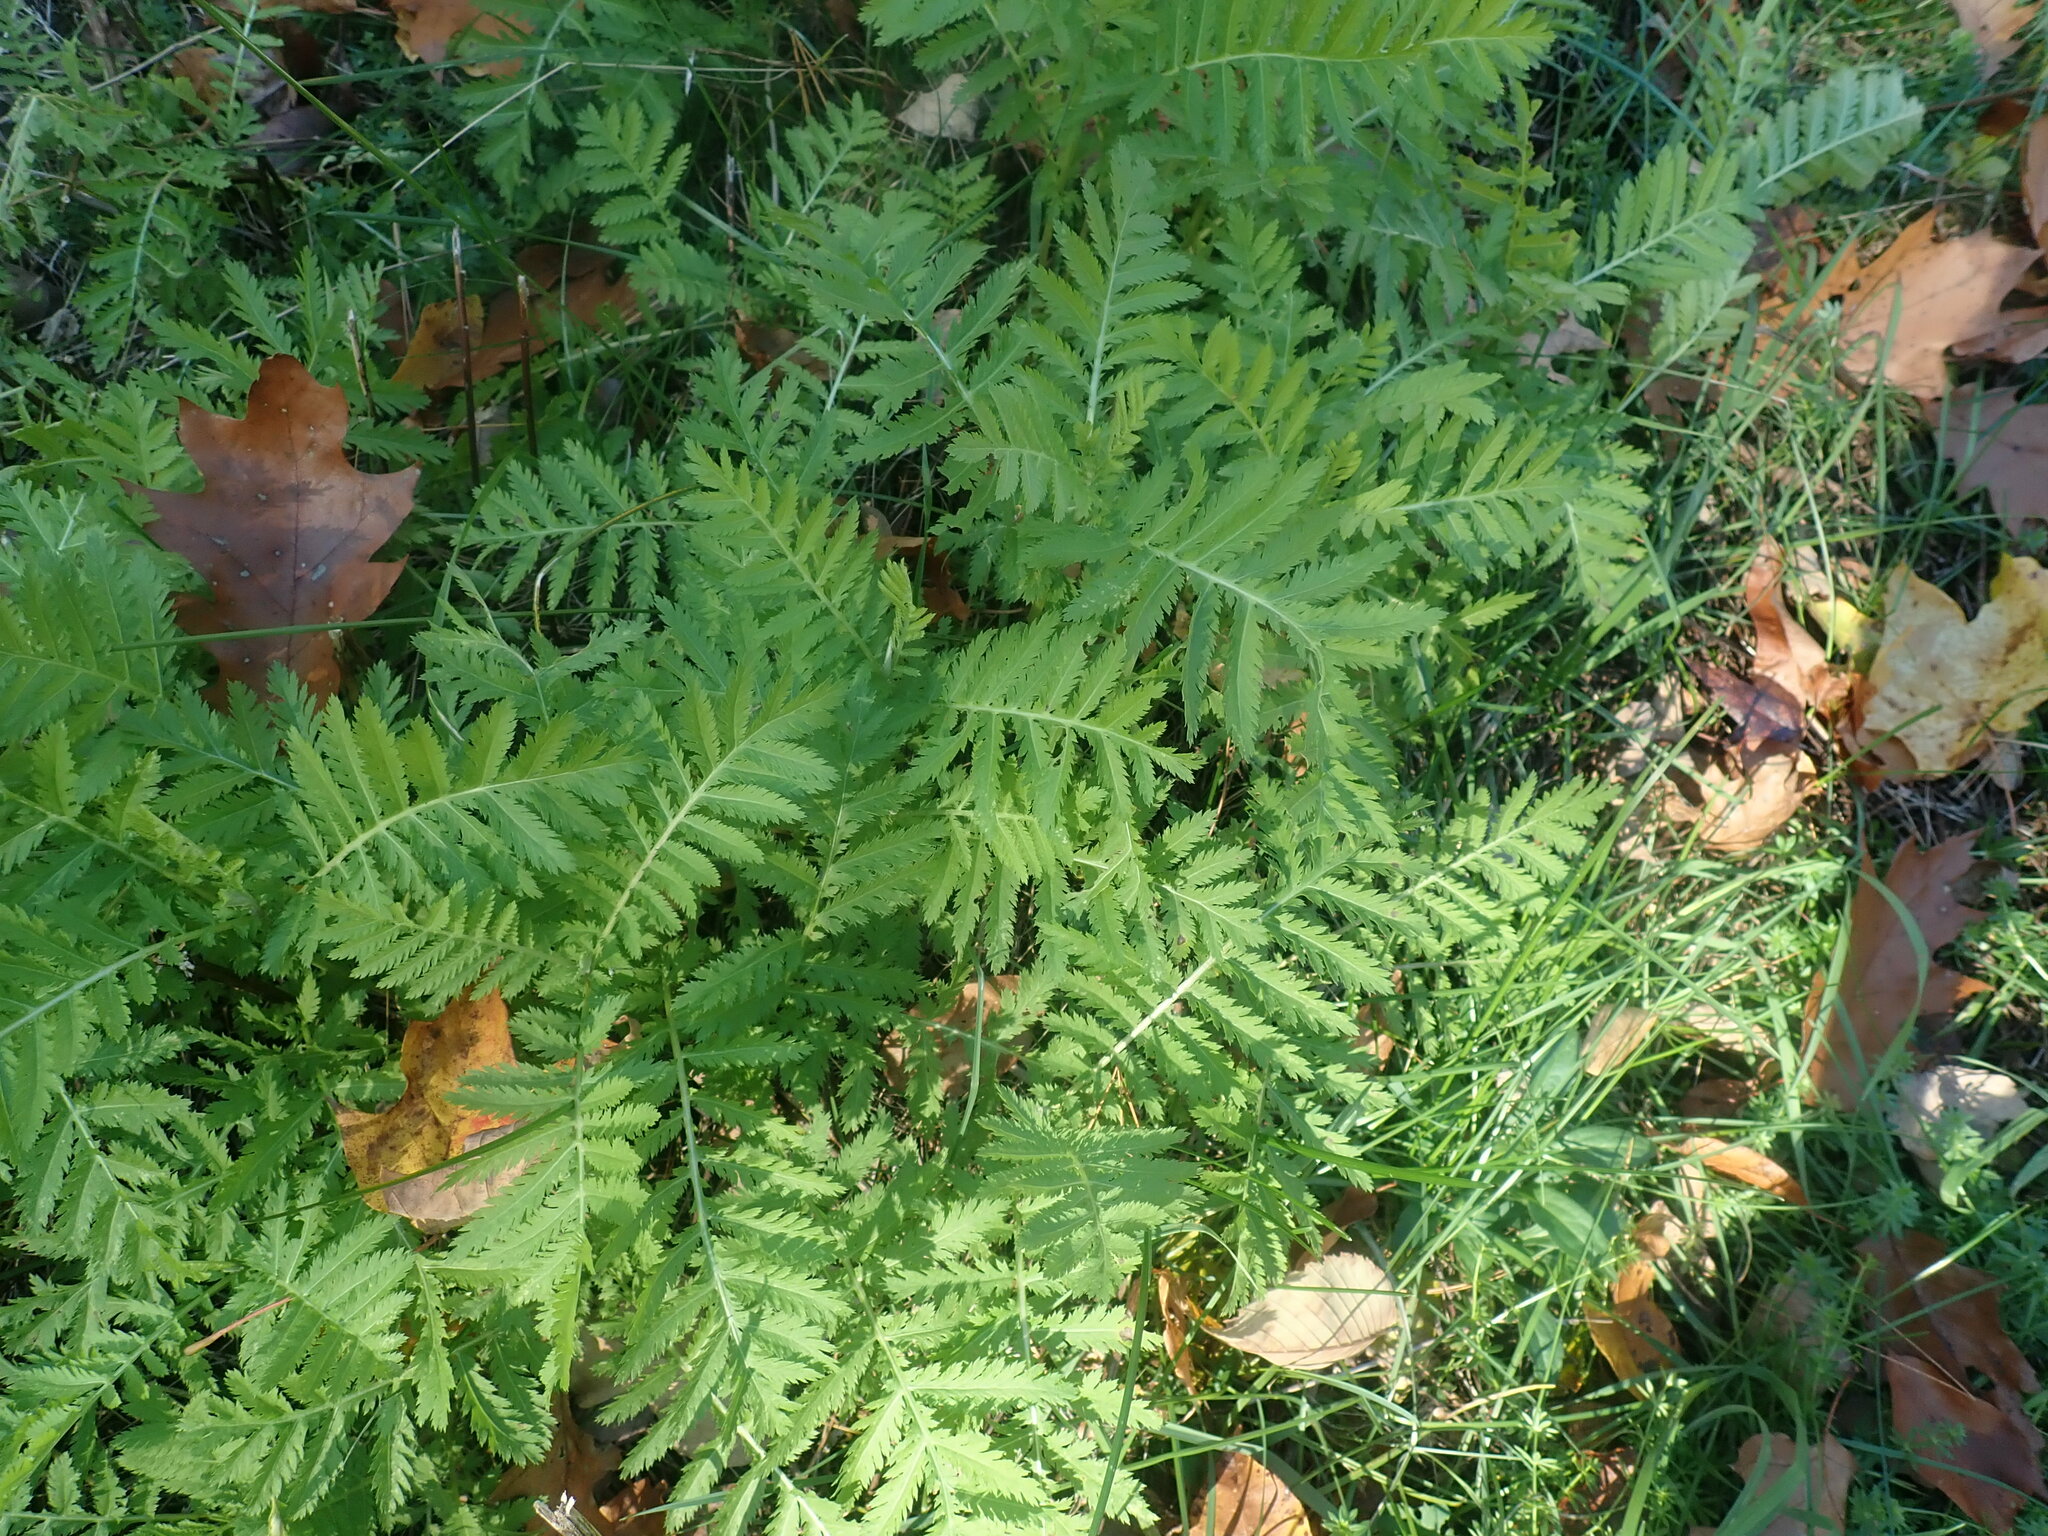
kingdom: Plantae
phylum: Tracheophyta
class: Magnoliopsida
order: Asterales
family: Asteraceae
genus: Tanacetum
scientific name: Tanacetum vulgare
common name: Common tansy
